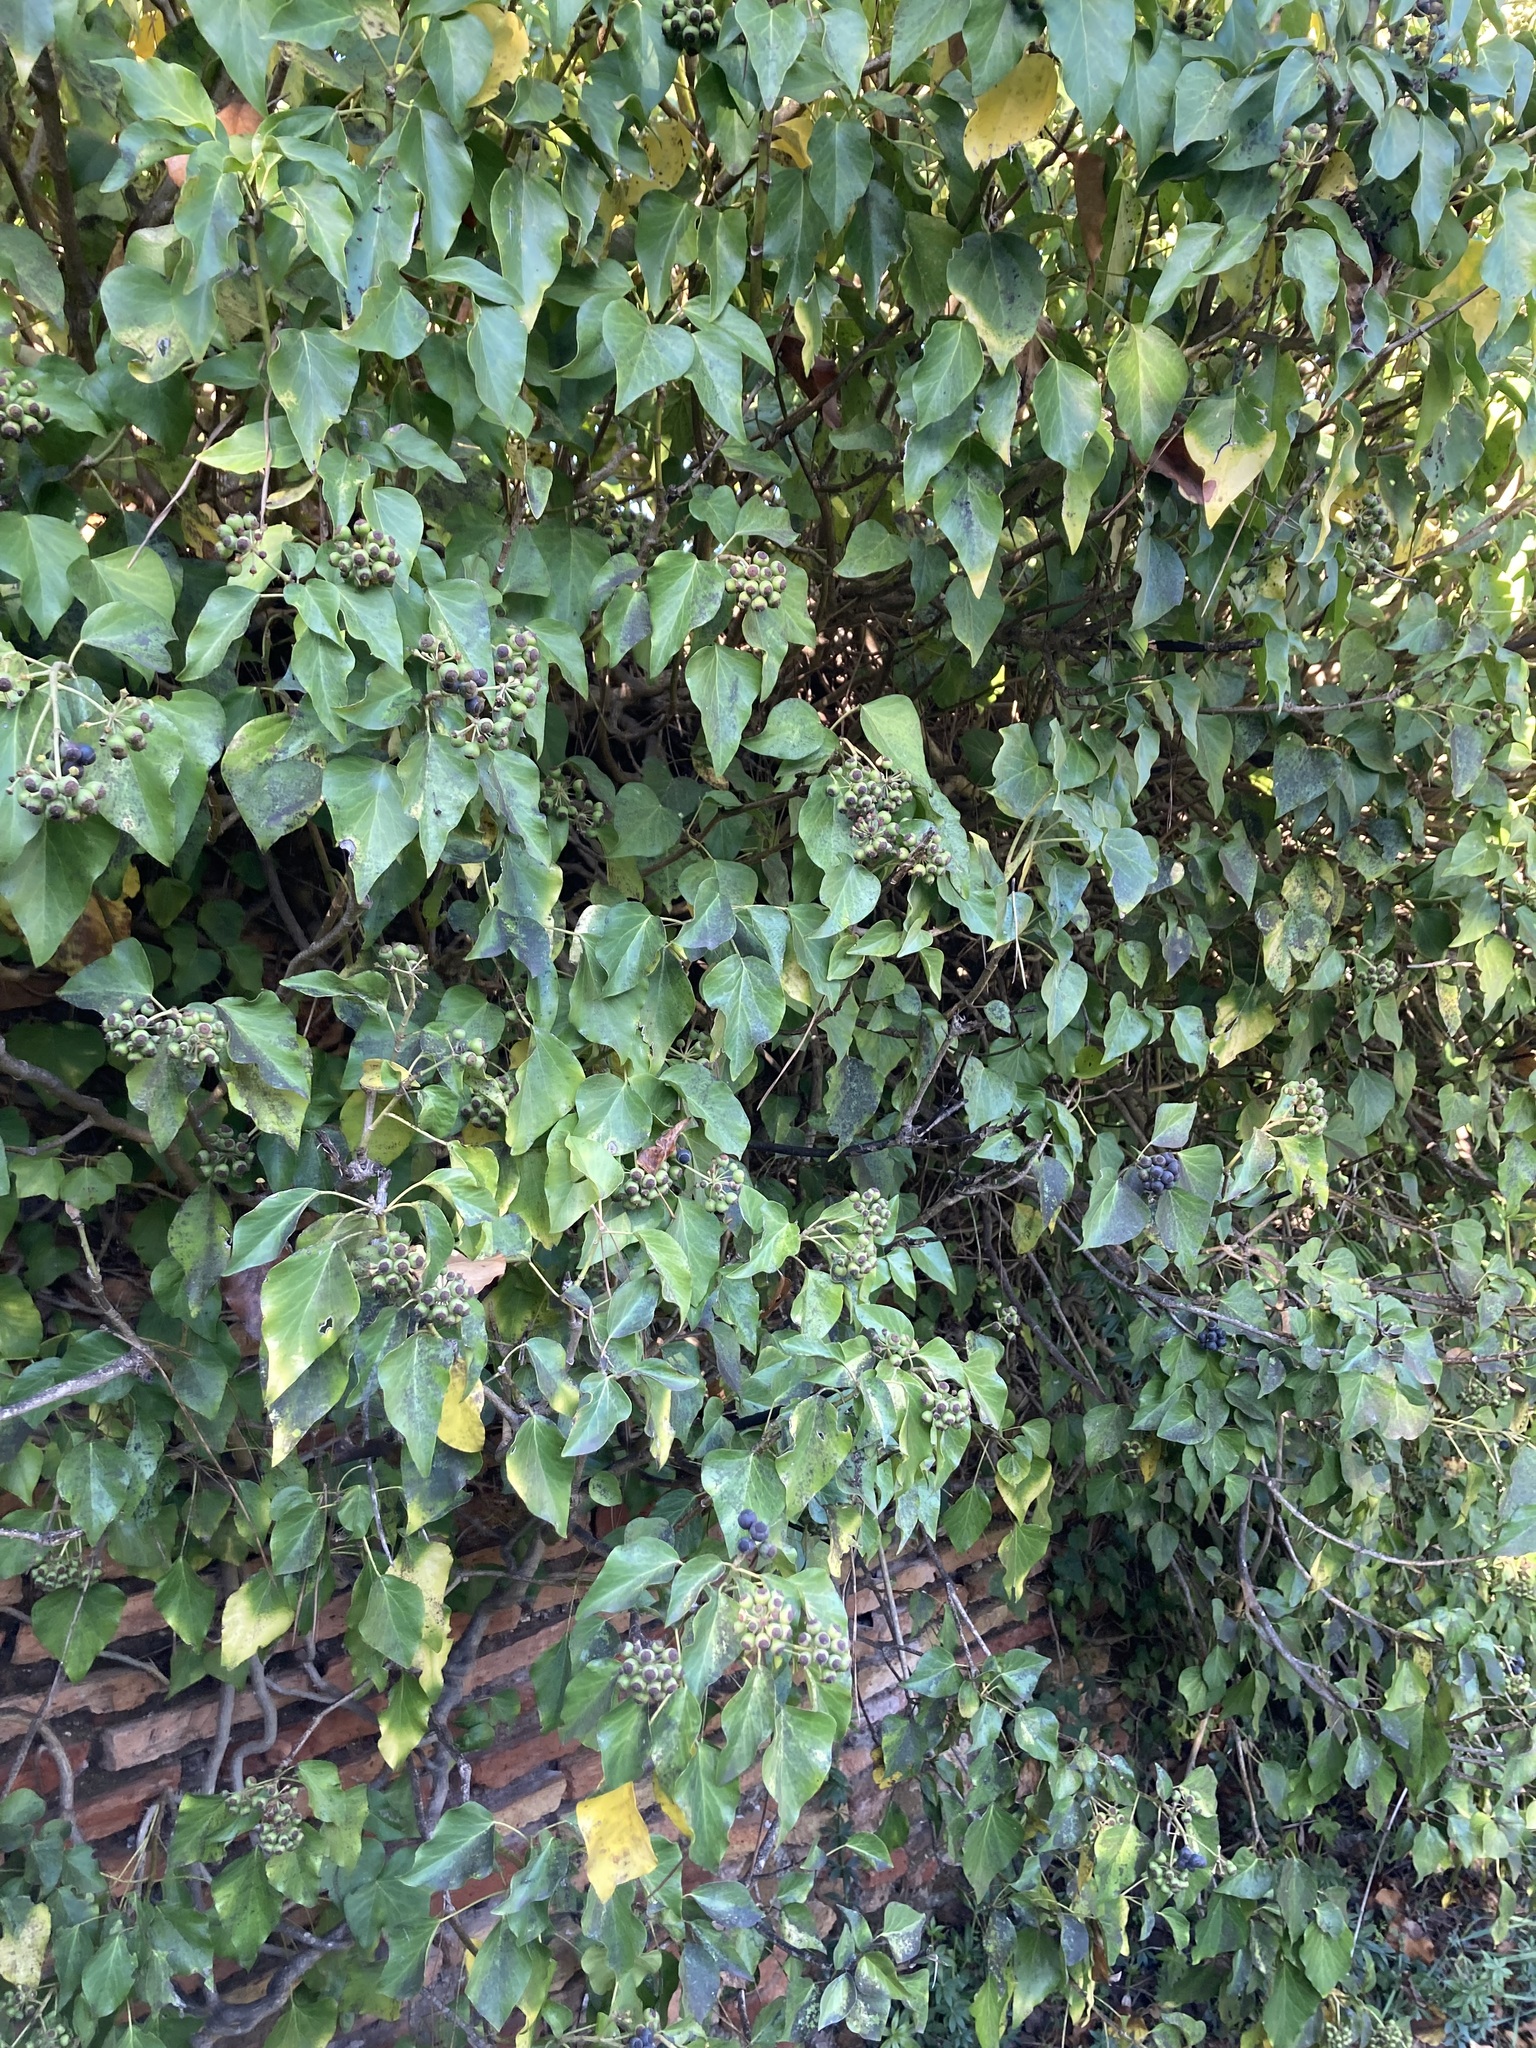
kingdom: Plantae
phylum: Tracheophyta
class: Magnoliopsida
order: Apiales
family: Araliaceae
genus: Hedera
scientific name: Hedera helix
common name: Ivy
